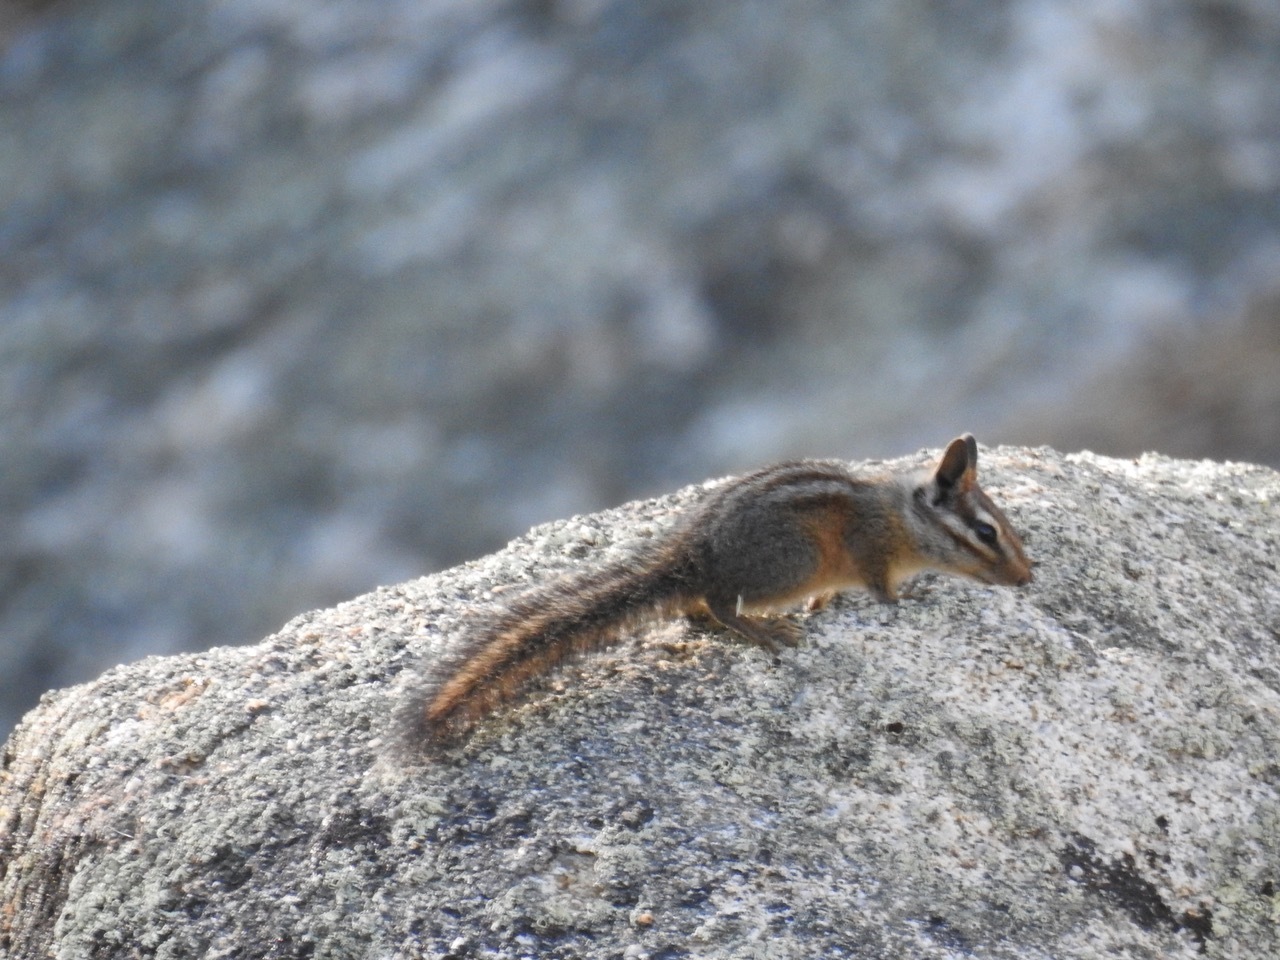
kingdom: Animalia
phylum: Chordata
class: Mammalia
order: Rodentia
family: Sciuridae
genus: Tamias
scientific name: Tamias obscurus
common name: California chipmunk
